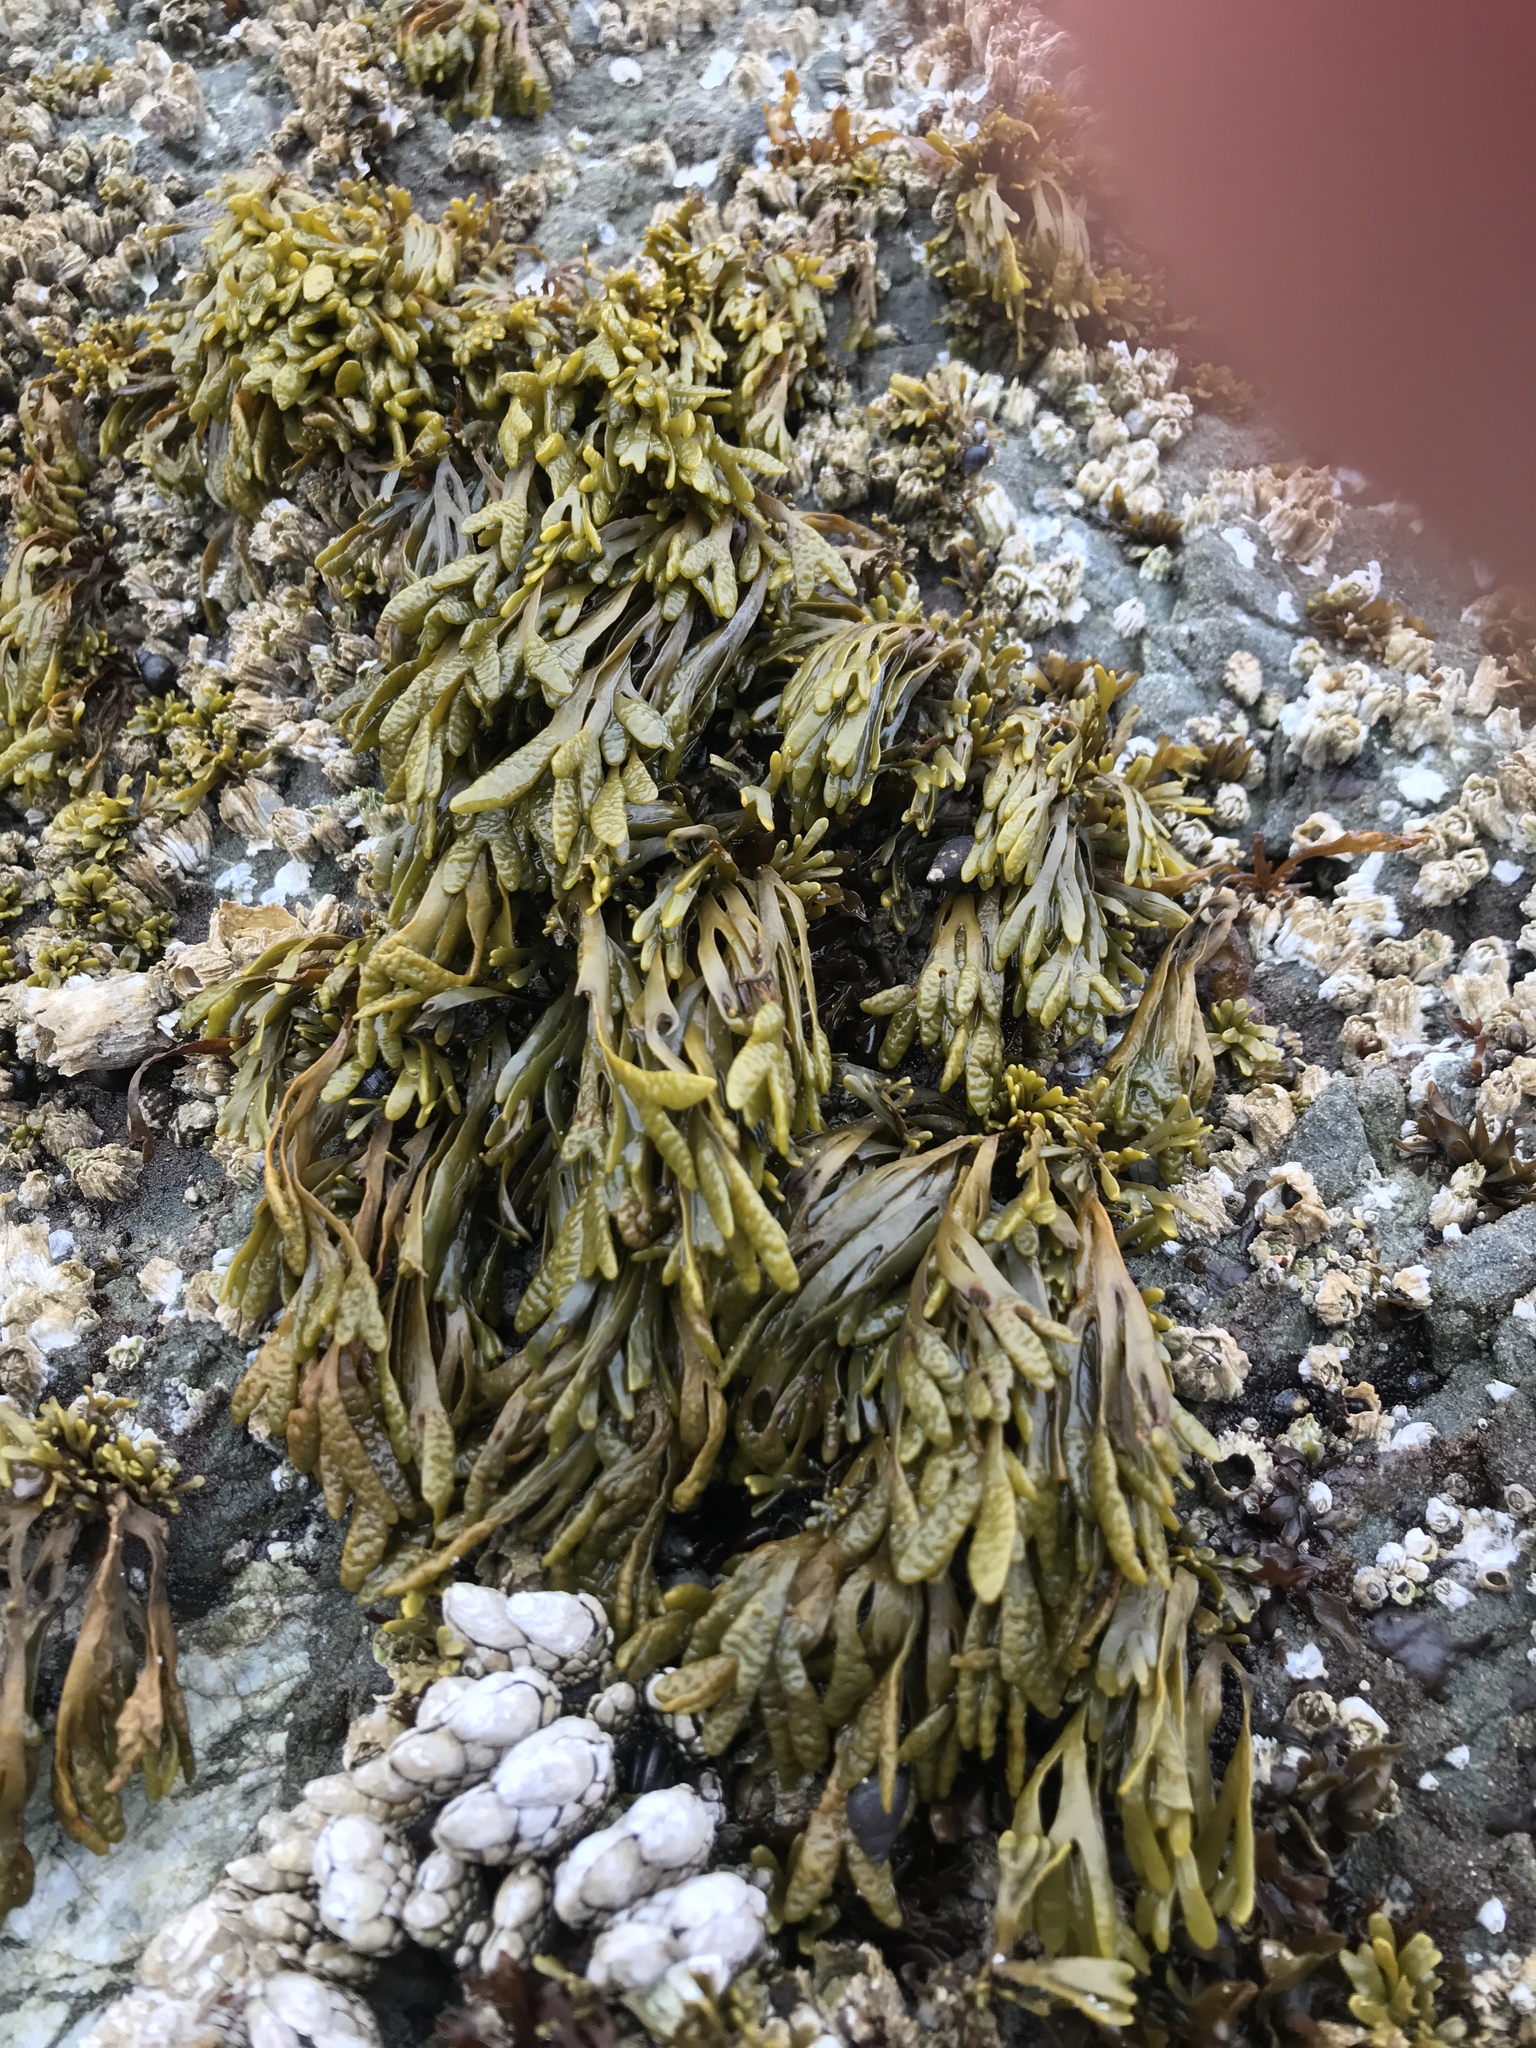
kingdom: Chromista
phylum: Ochrophyta
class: Phaeophyceae
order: Fucales
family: Fucaceae
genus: Pelvetiopsis
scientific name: Pelvetiopsis limitata
